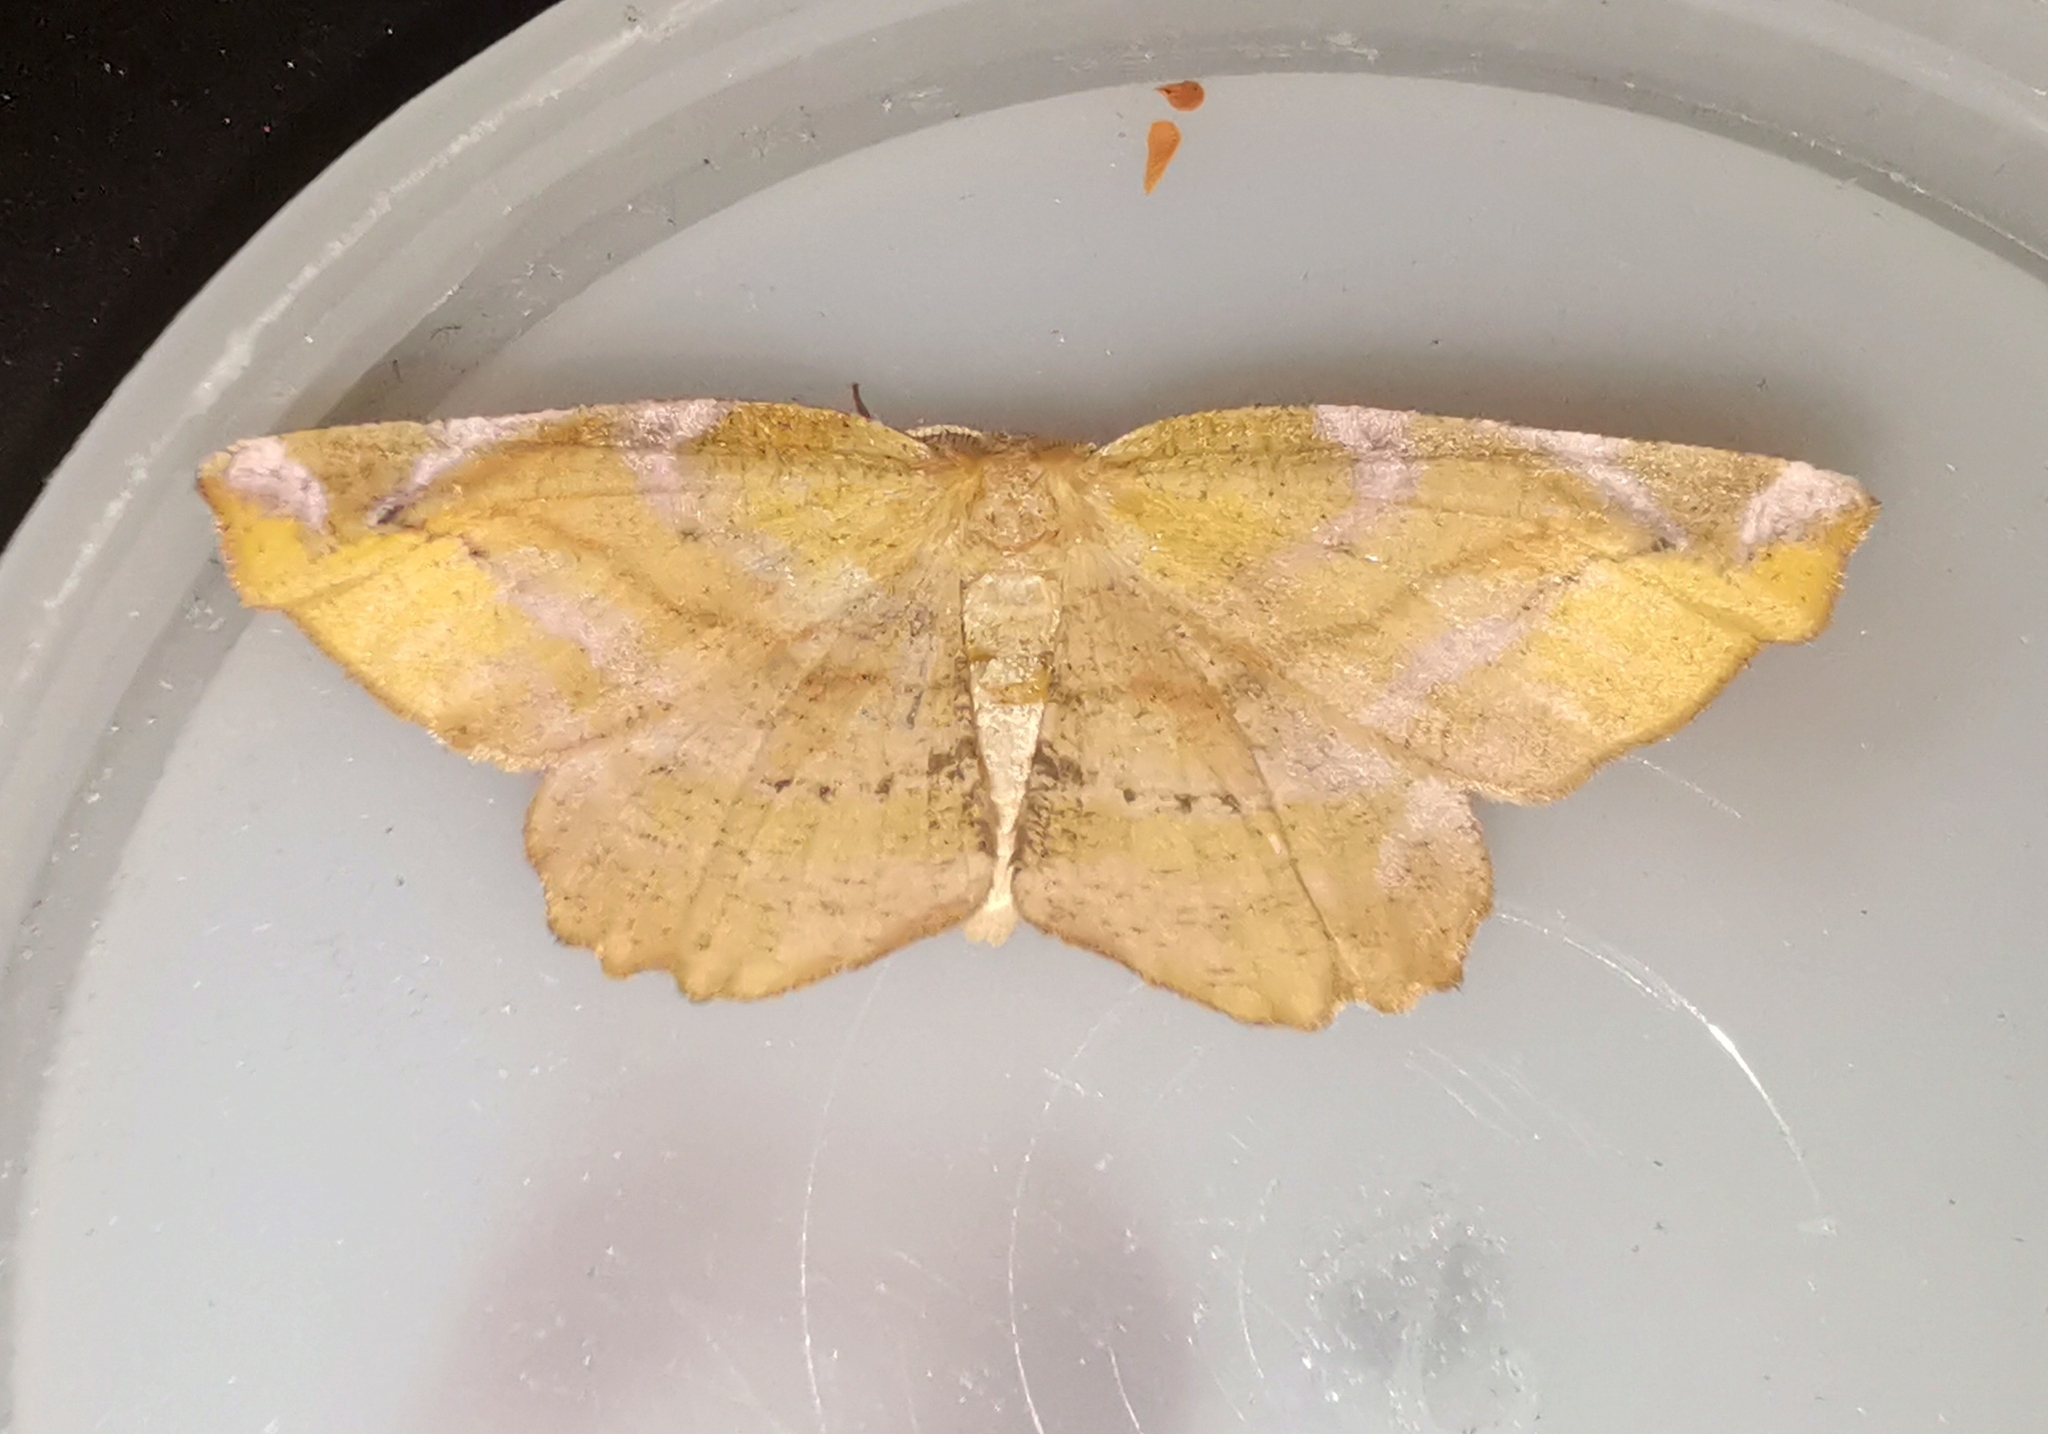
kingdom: Animalia
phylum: Arthropoda
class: Insecta
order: Lepidoptera
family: Geometridae
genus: Apeira
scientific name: Apeira syringaria
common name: Lilac beauty
